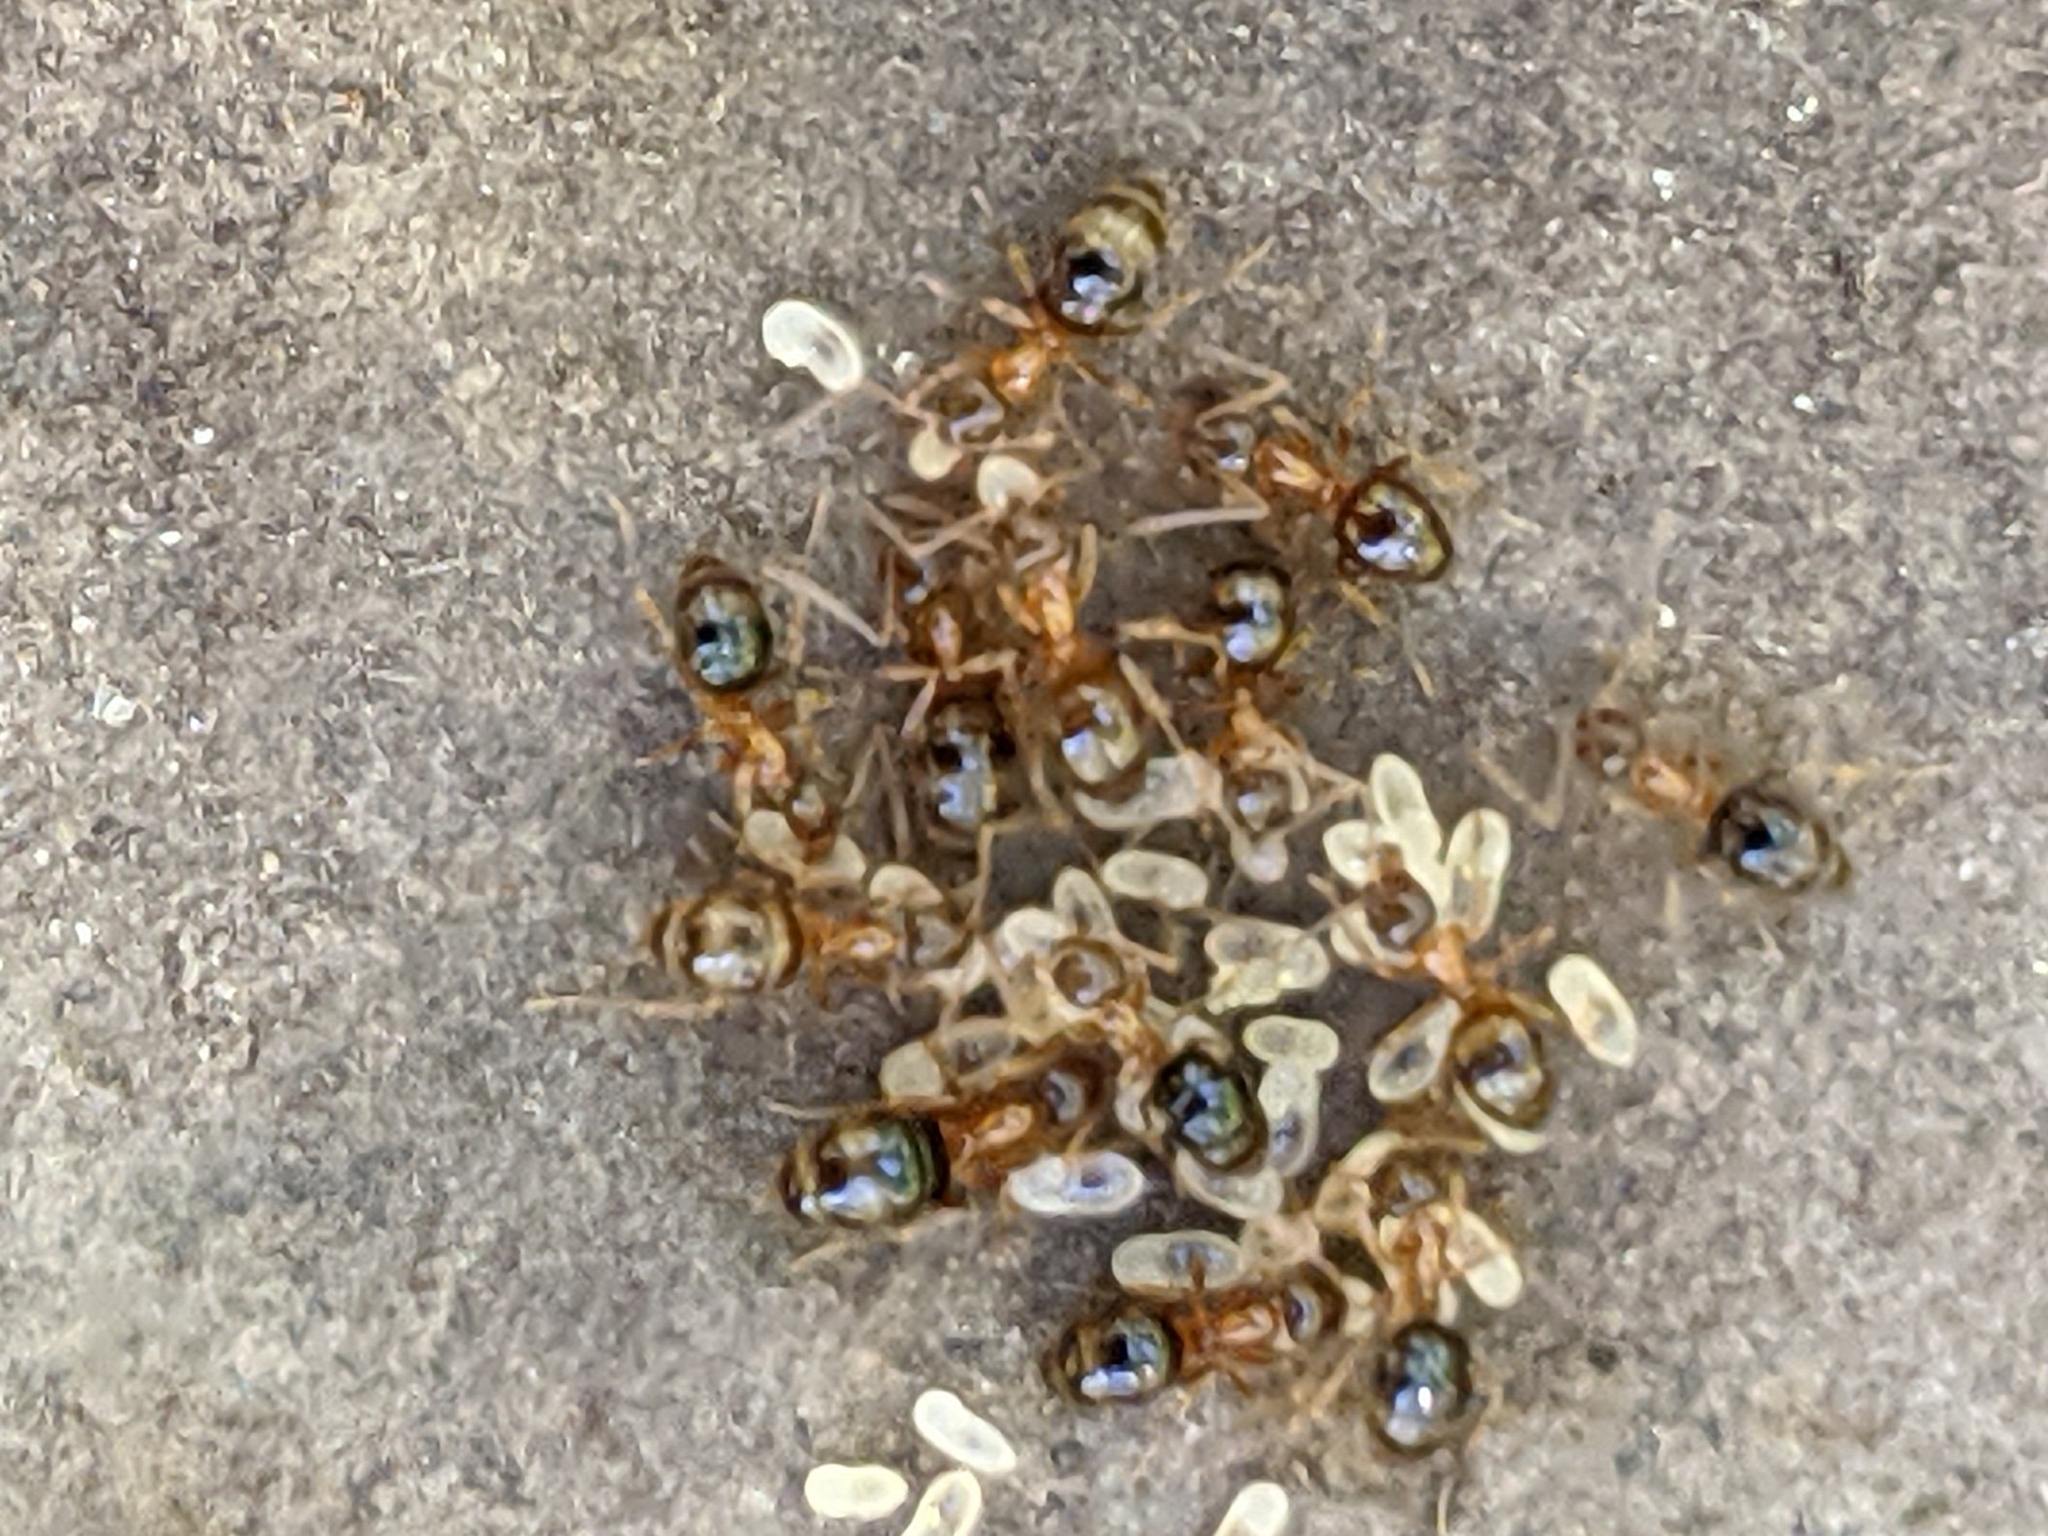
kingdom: Animalia
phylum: Arthropoda
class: Insecta
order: Hymenoptera
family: Formicidae
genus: Paratrechina
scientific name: Paratrechina flavipes
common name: Eastern asian formicine ant
